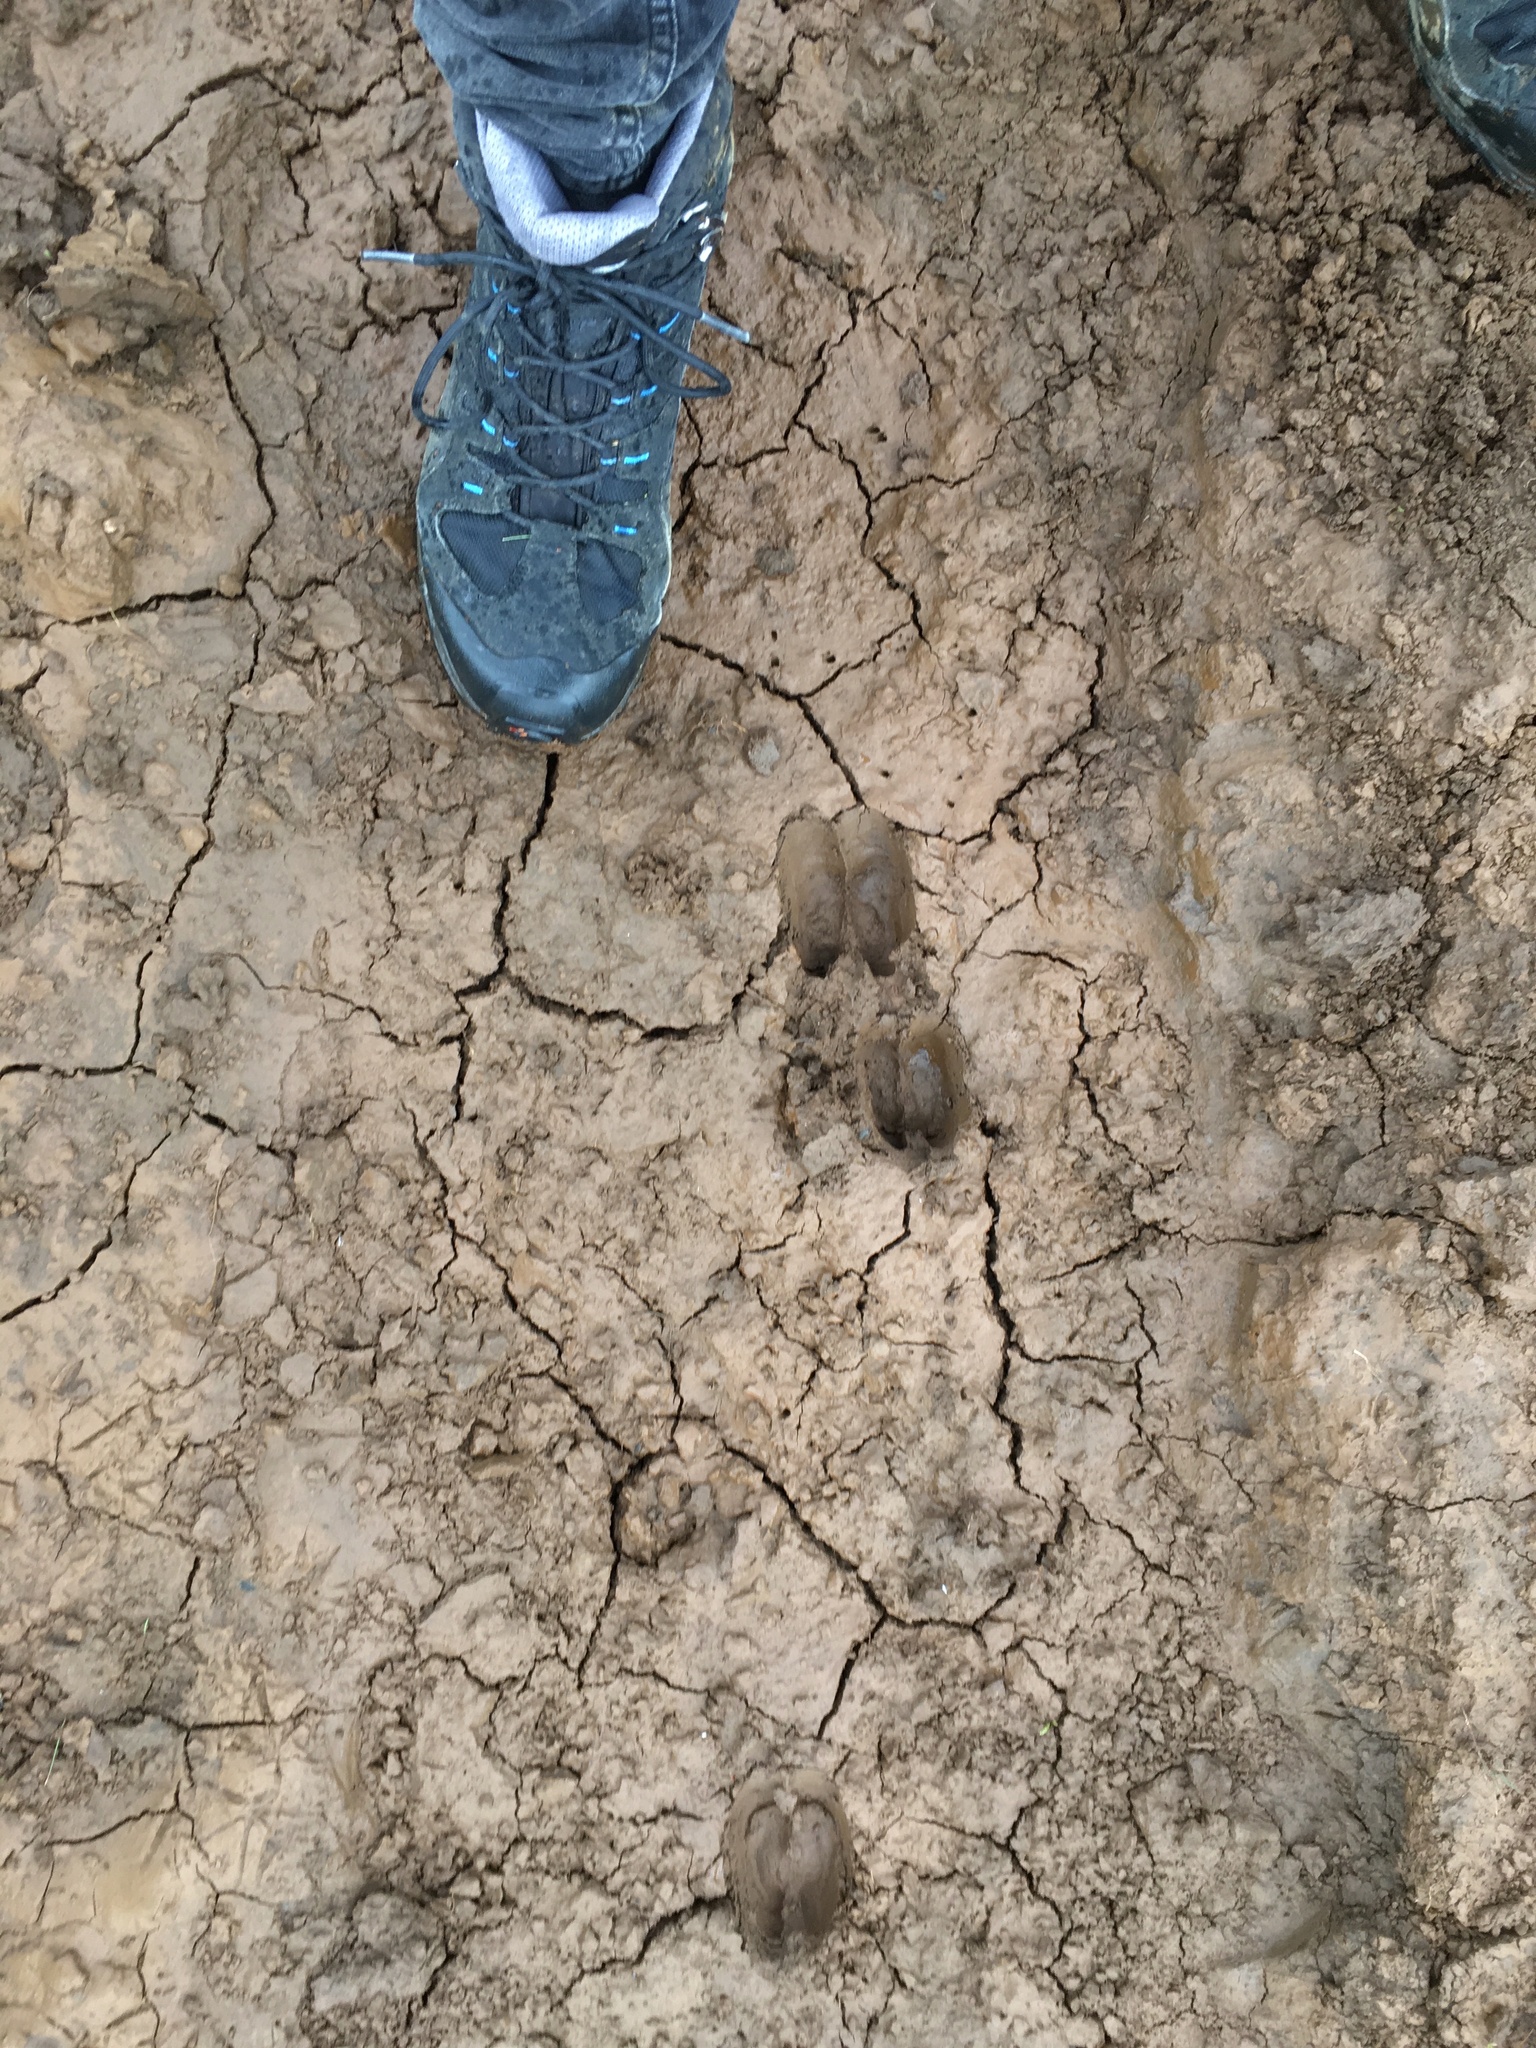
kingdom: Animalia
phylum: Chordata
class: Mammalia
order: Artiodactyla
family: Bovidae
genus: Ovis
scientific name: Ovis aries
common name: Domestic sheep
